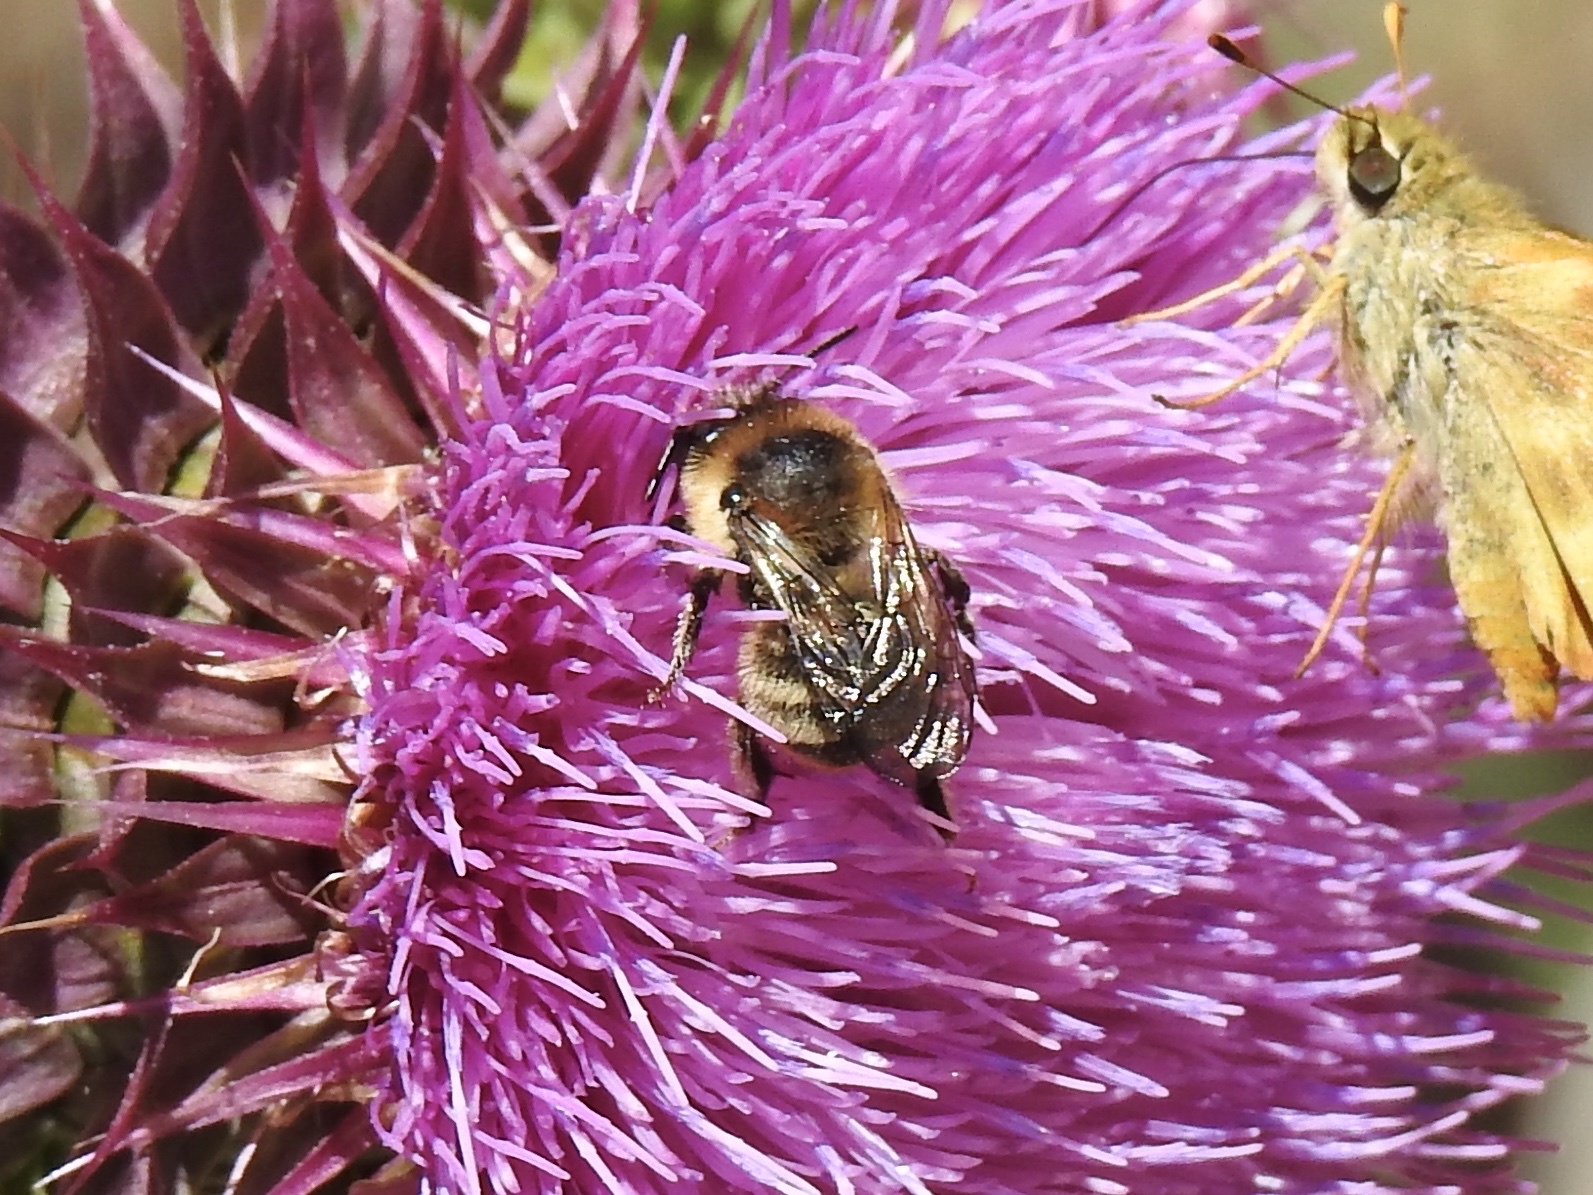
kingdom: Animalia
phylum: Arthropoda
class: Insecta
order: Hymenoptera
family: Apidae
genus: Anthophora
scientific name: Anthophora terminalis
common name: Orange-tipped wood-digger bee
